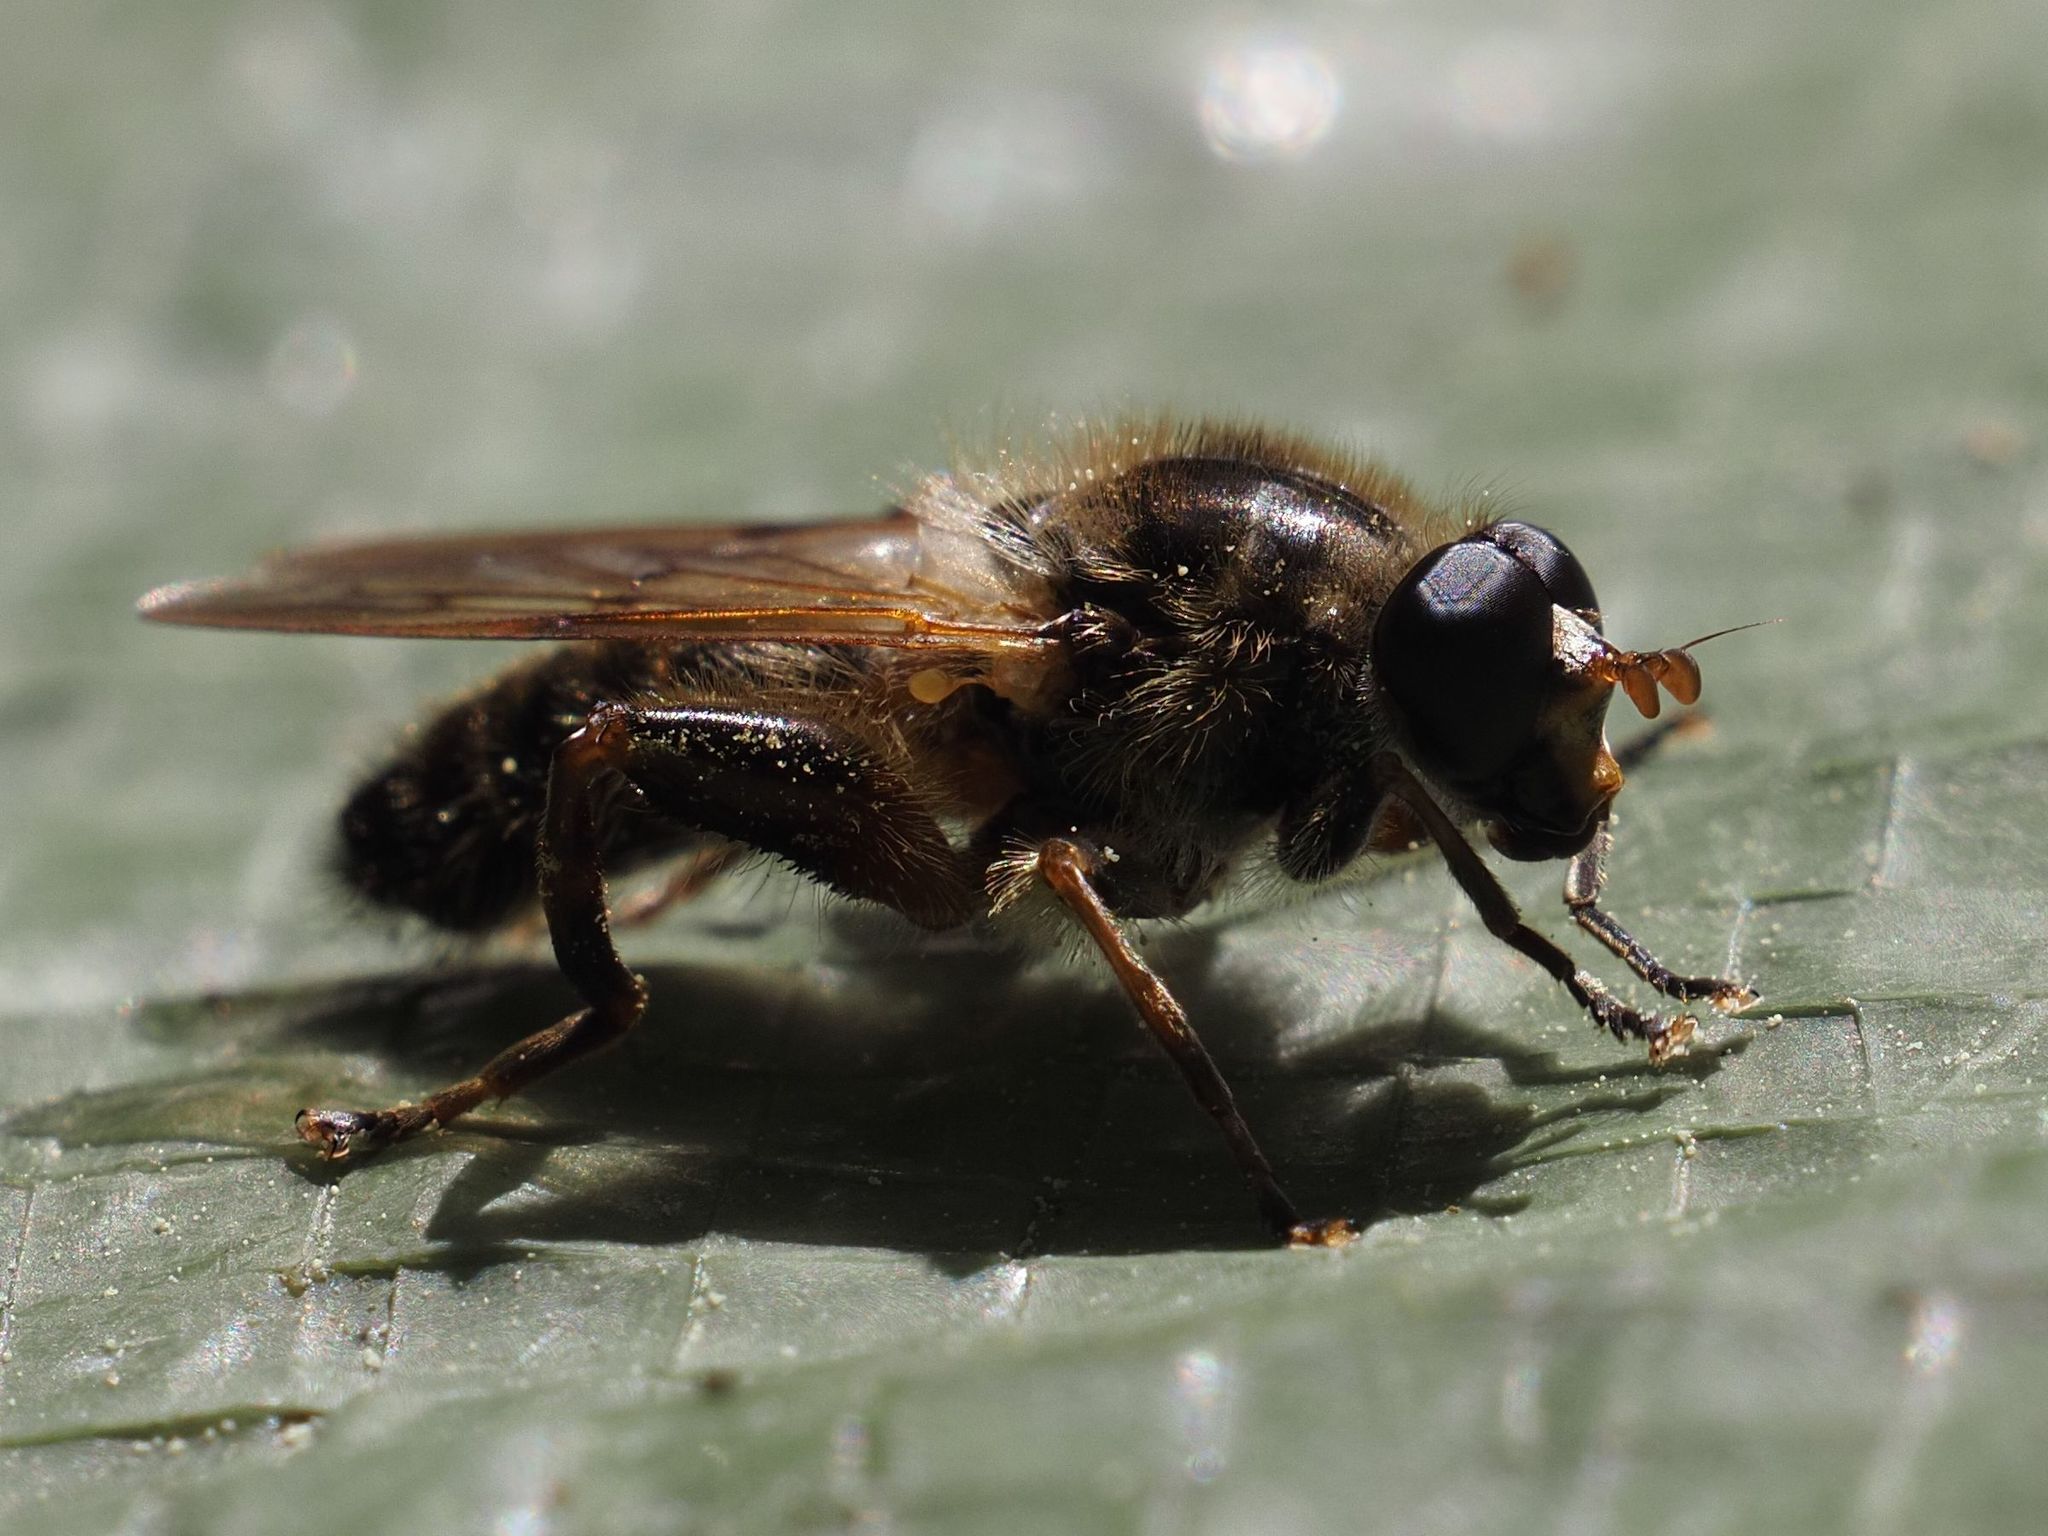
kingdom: Animalia
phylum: Arthropoda
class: Insecta
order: Diptera
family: Syrphidae
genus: Brachypalpus
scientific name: Brachypalpus valgus
